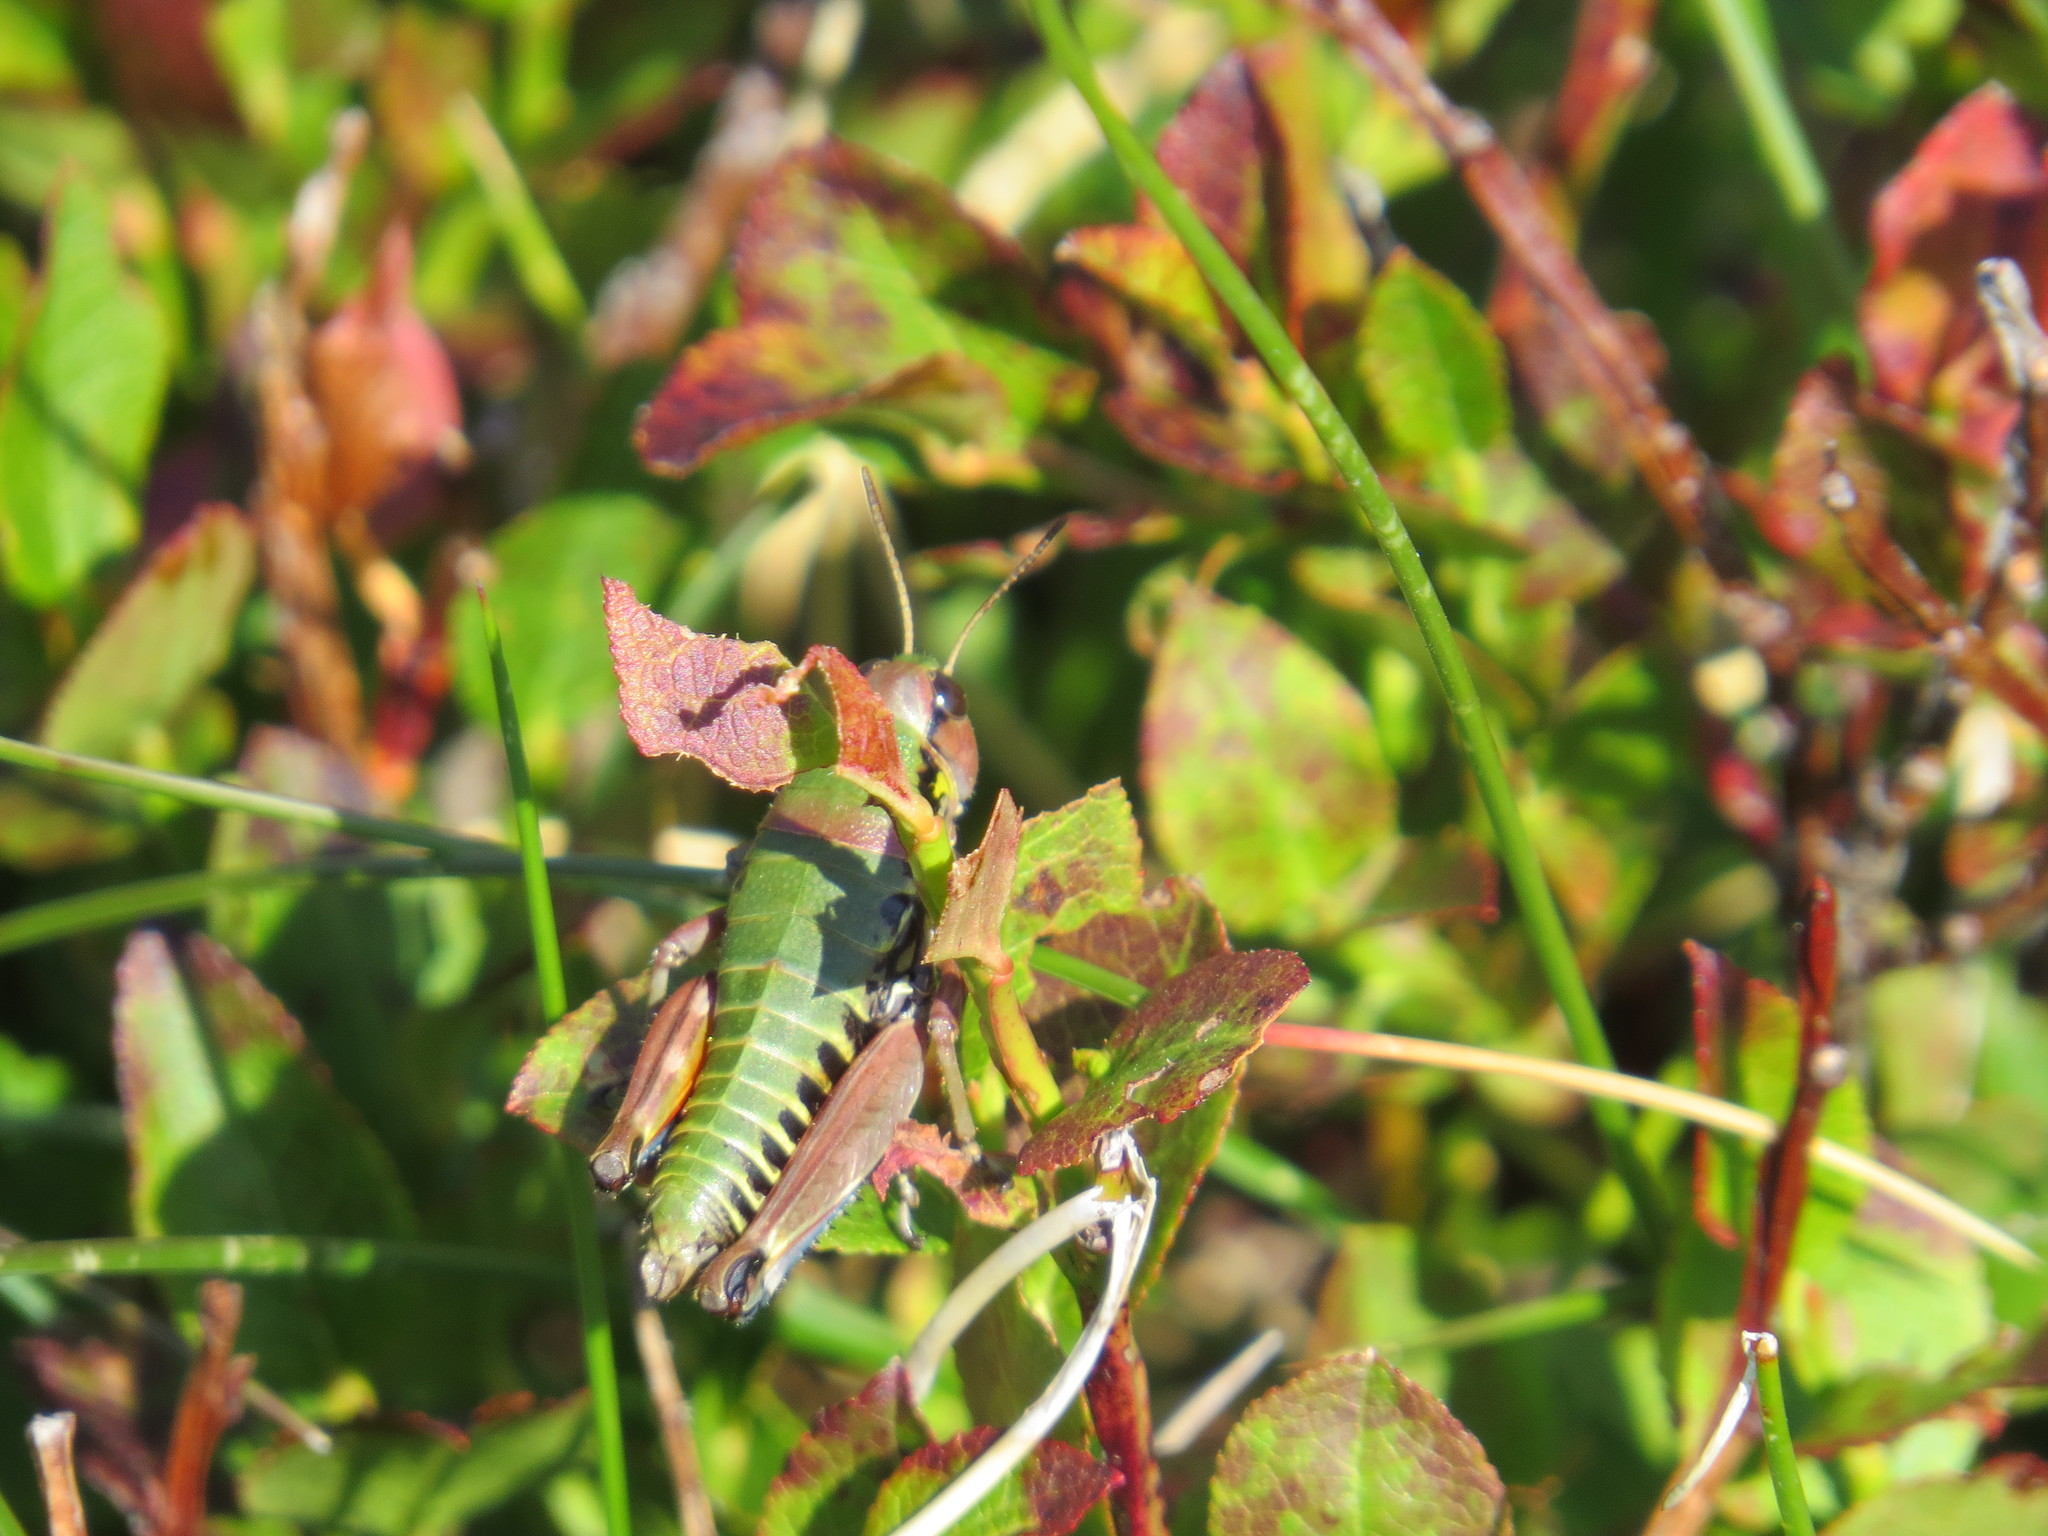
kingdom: Animalia
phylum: Arthropoda
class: Insecta
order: Orthoptera
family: Acrididae
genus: Cophopodisma
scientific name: Cophopodisma pyrenaea
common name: Pyrenean mountain grasshopper
